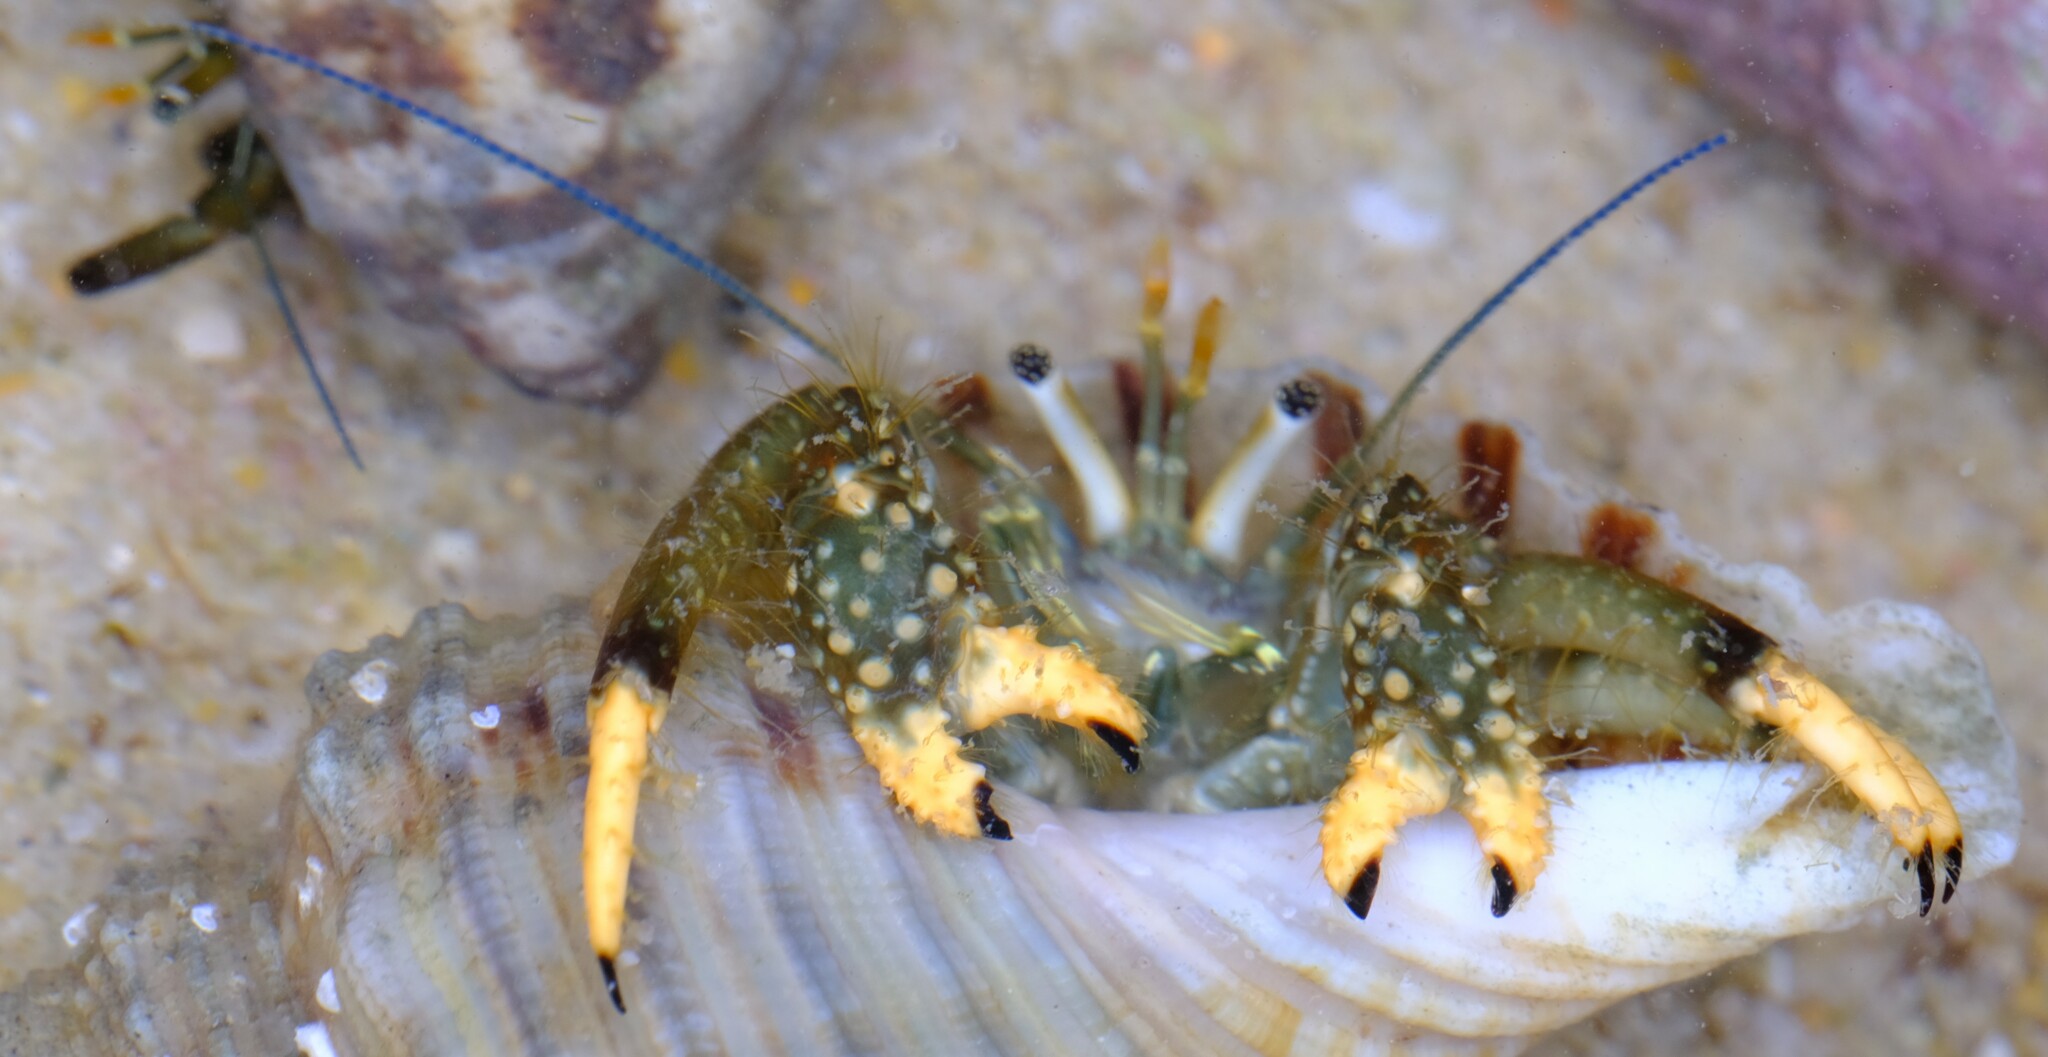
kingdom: Animalia
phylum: Arthropoda
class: Malacostraca
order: Decapoda
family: Diogenidae
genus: Clibanarius
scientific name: Clibanarius virescens
